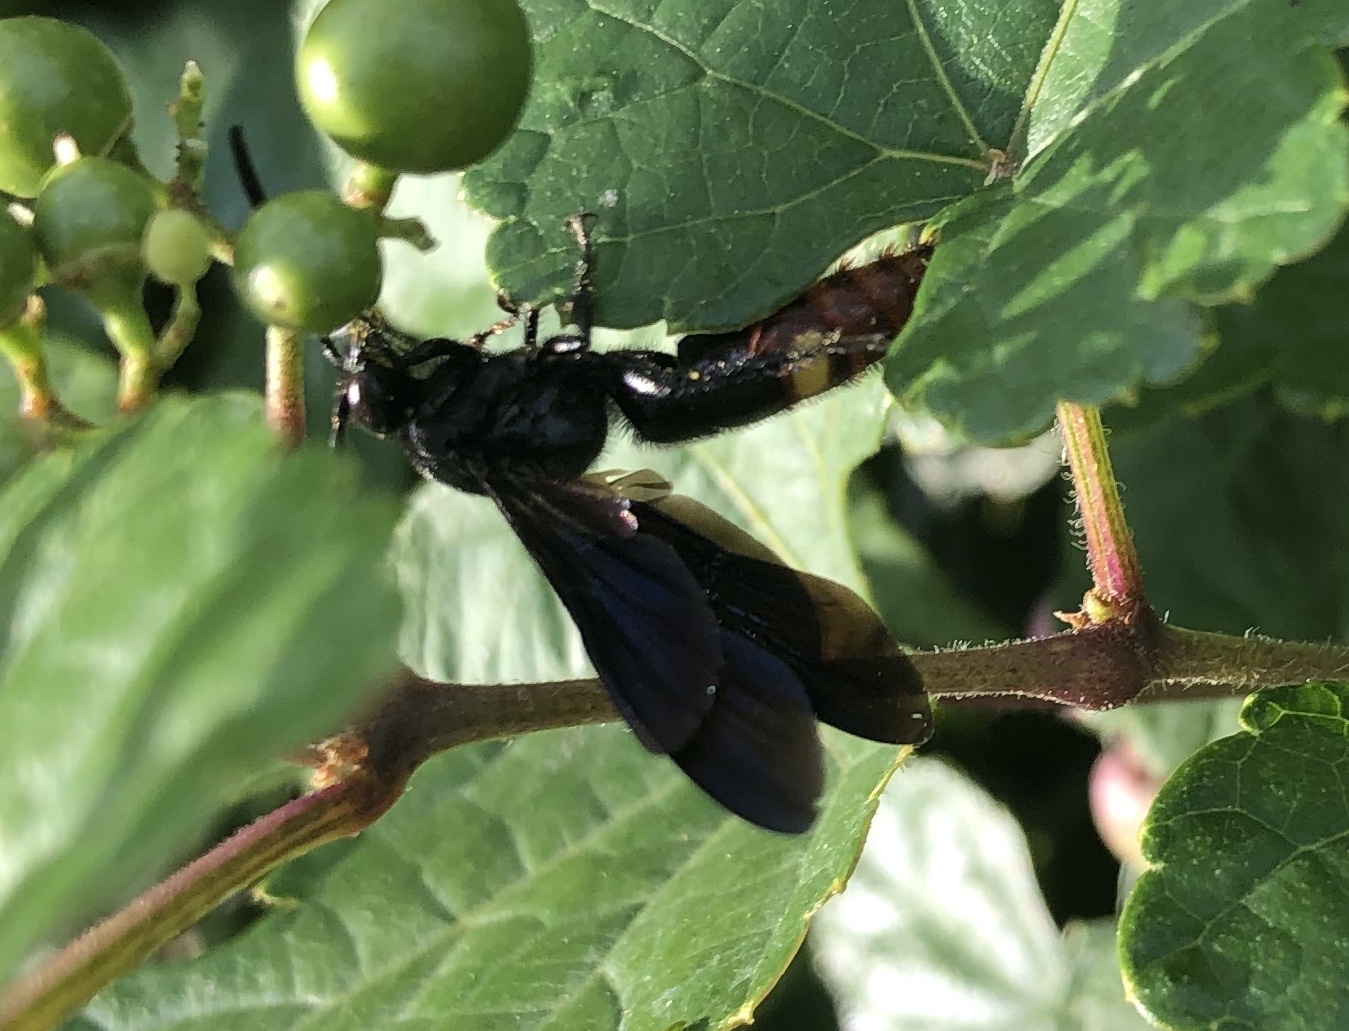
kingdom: Animalia
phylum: Arthropoda
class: Insecta
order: Hymenoptera
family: Scoliidae
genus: Scolia
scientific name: Scolia dubia
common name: Blue-winged scoliid wasp
